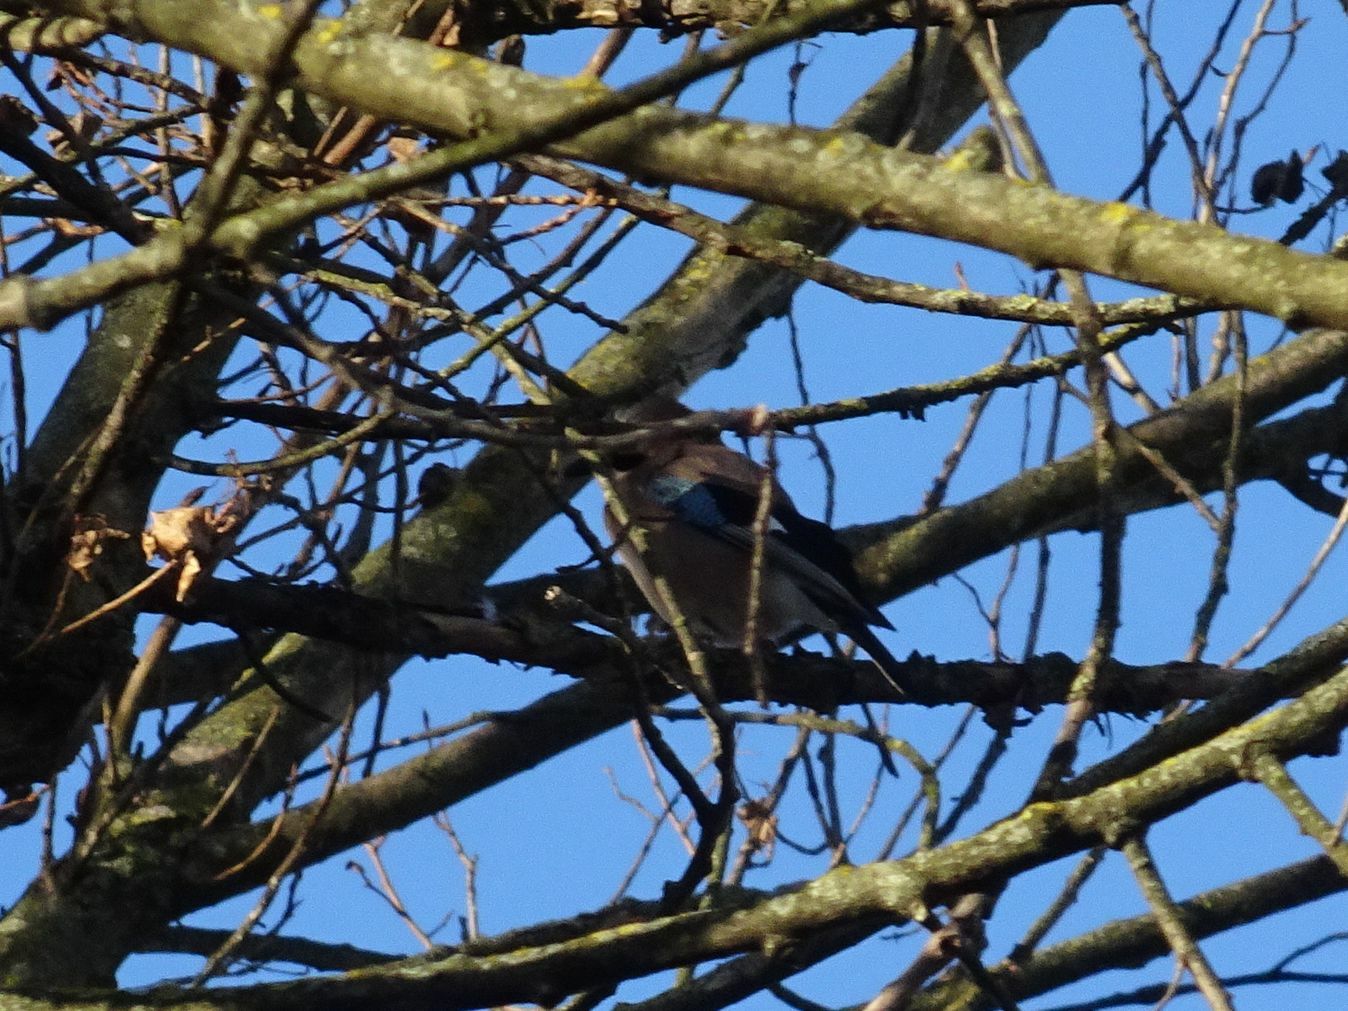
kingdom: Animalia
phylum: Chordata
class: Aves
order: Passeriformes
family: Corvidae
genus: Garrulus
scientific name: Garrulus glandarius
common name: Eurasian jay
